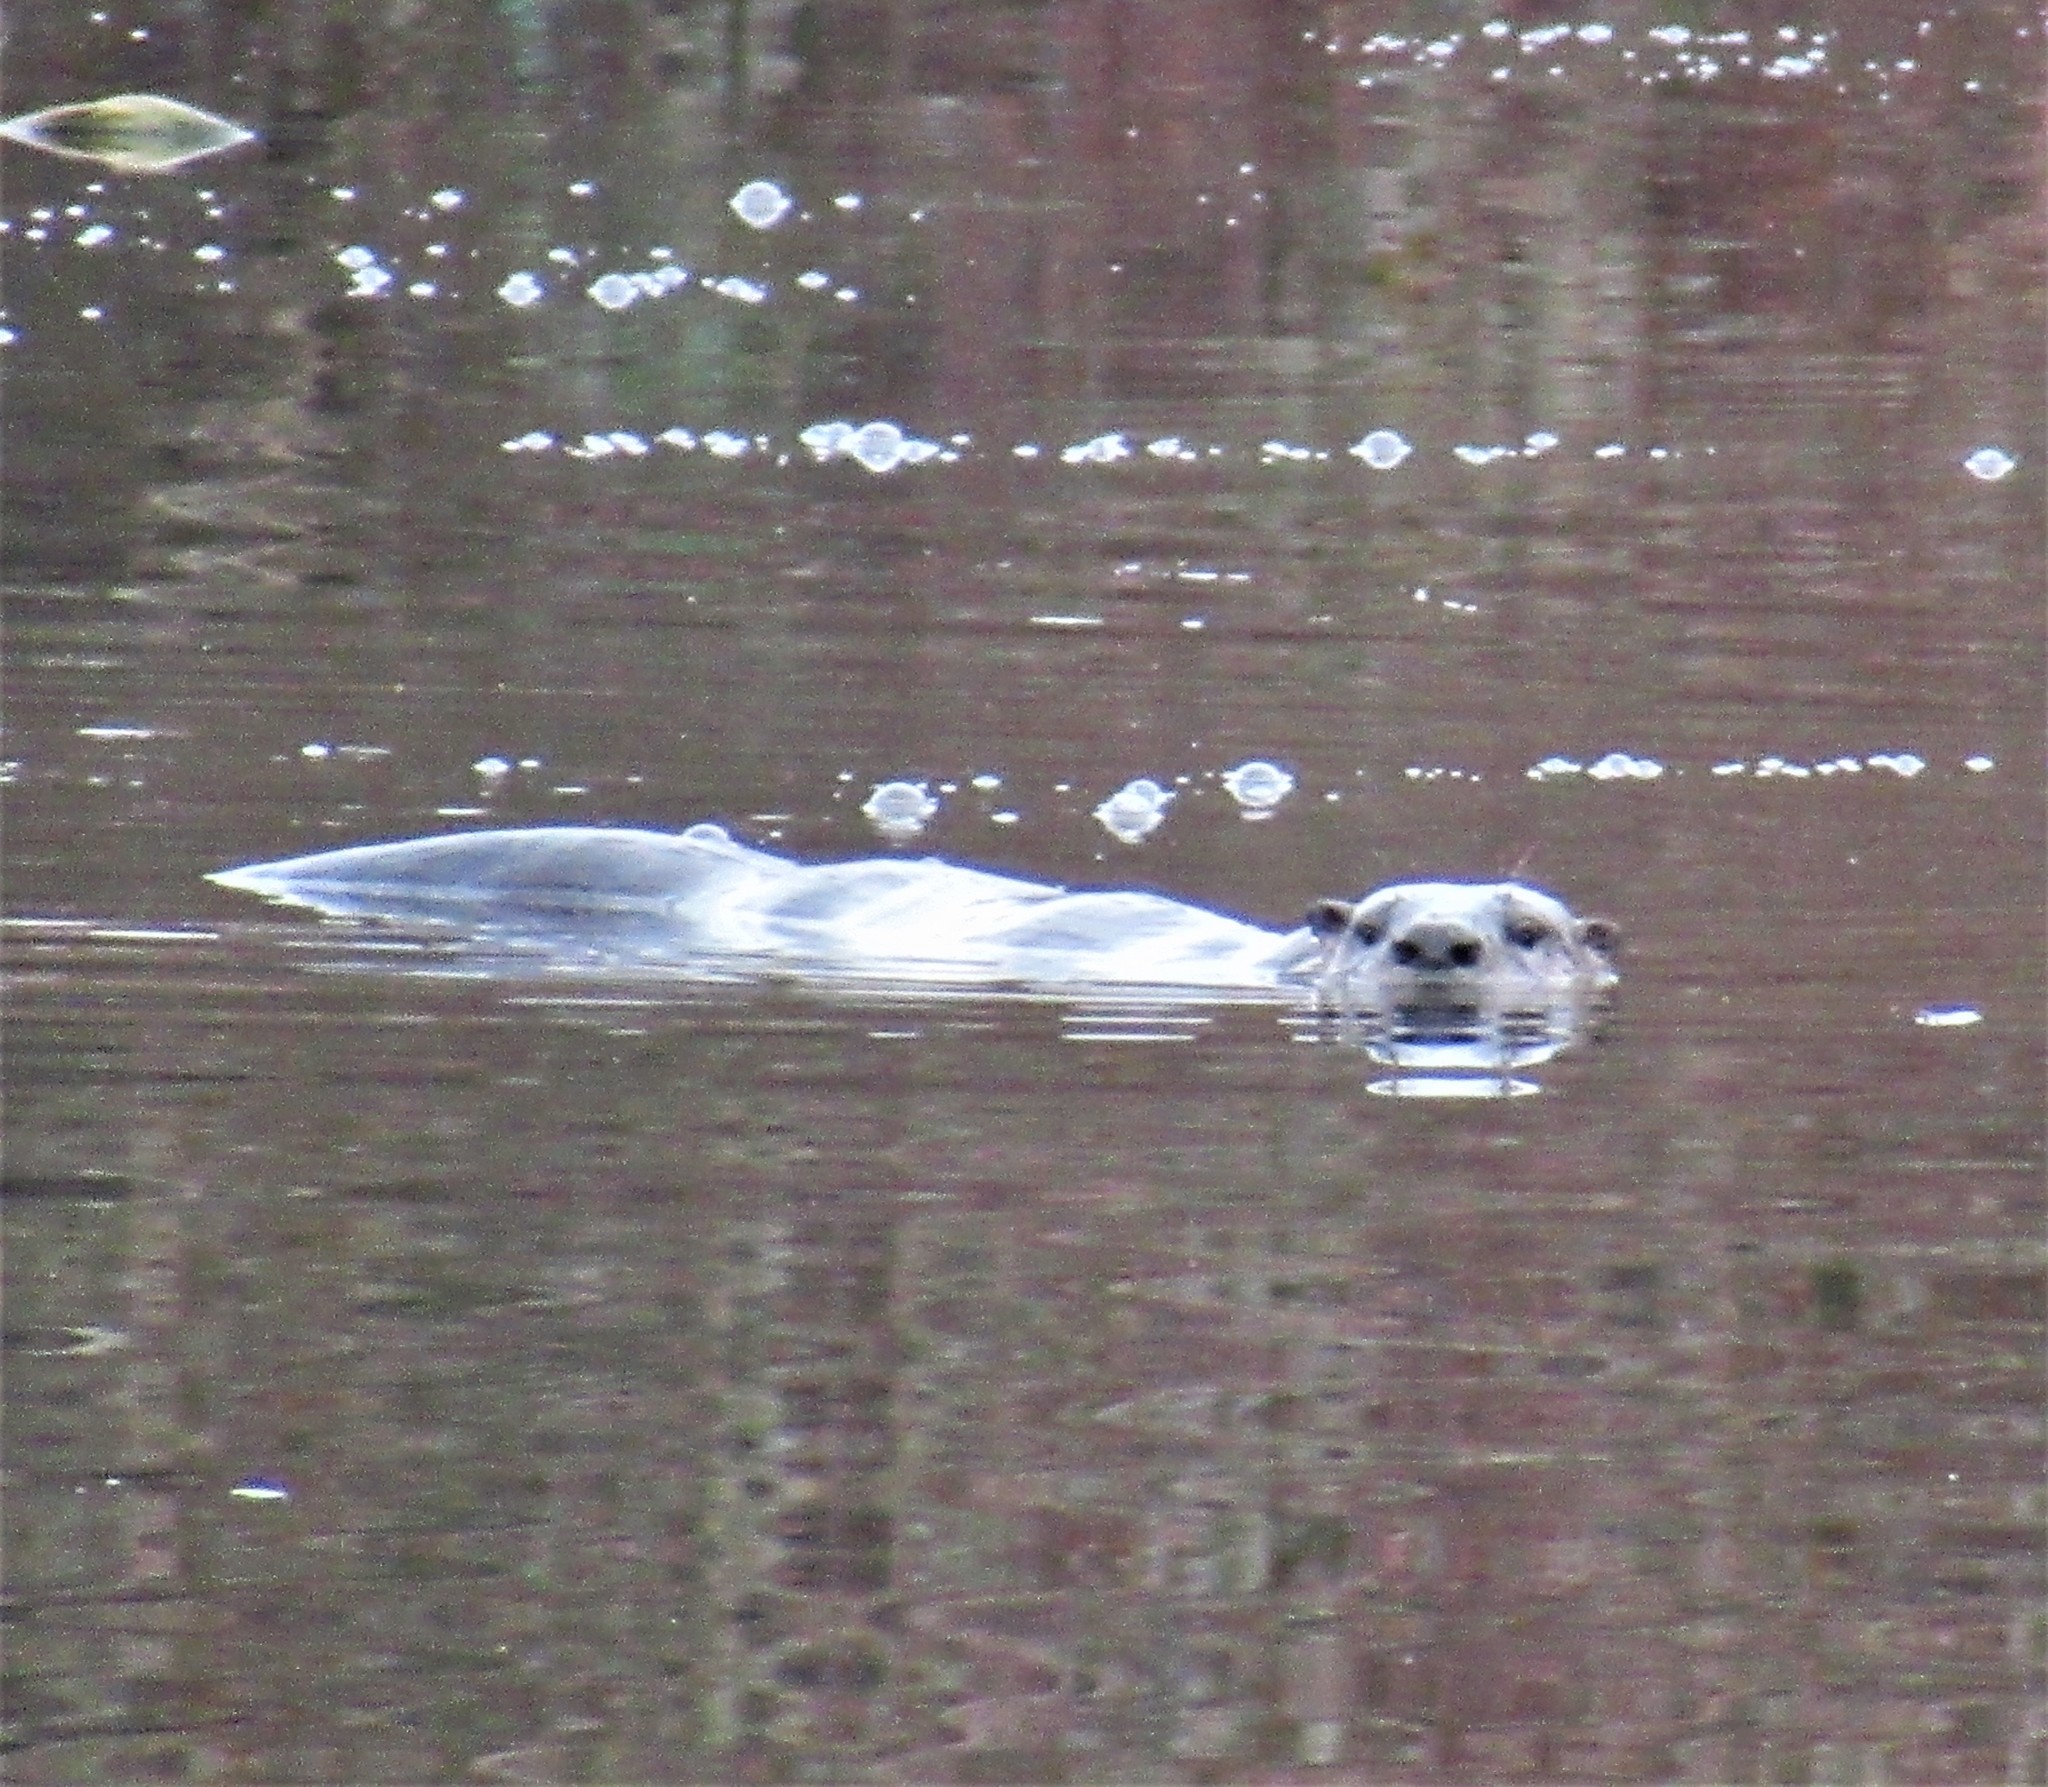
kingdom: Animalia
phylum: Chordata
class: Mammalia
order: Carnivora
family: Mustelidae
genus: Lontra
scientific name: Lontra canadensis
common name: North american river otter
